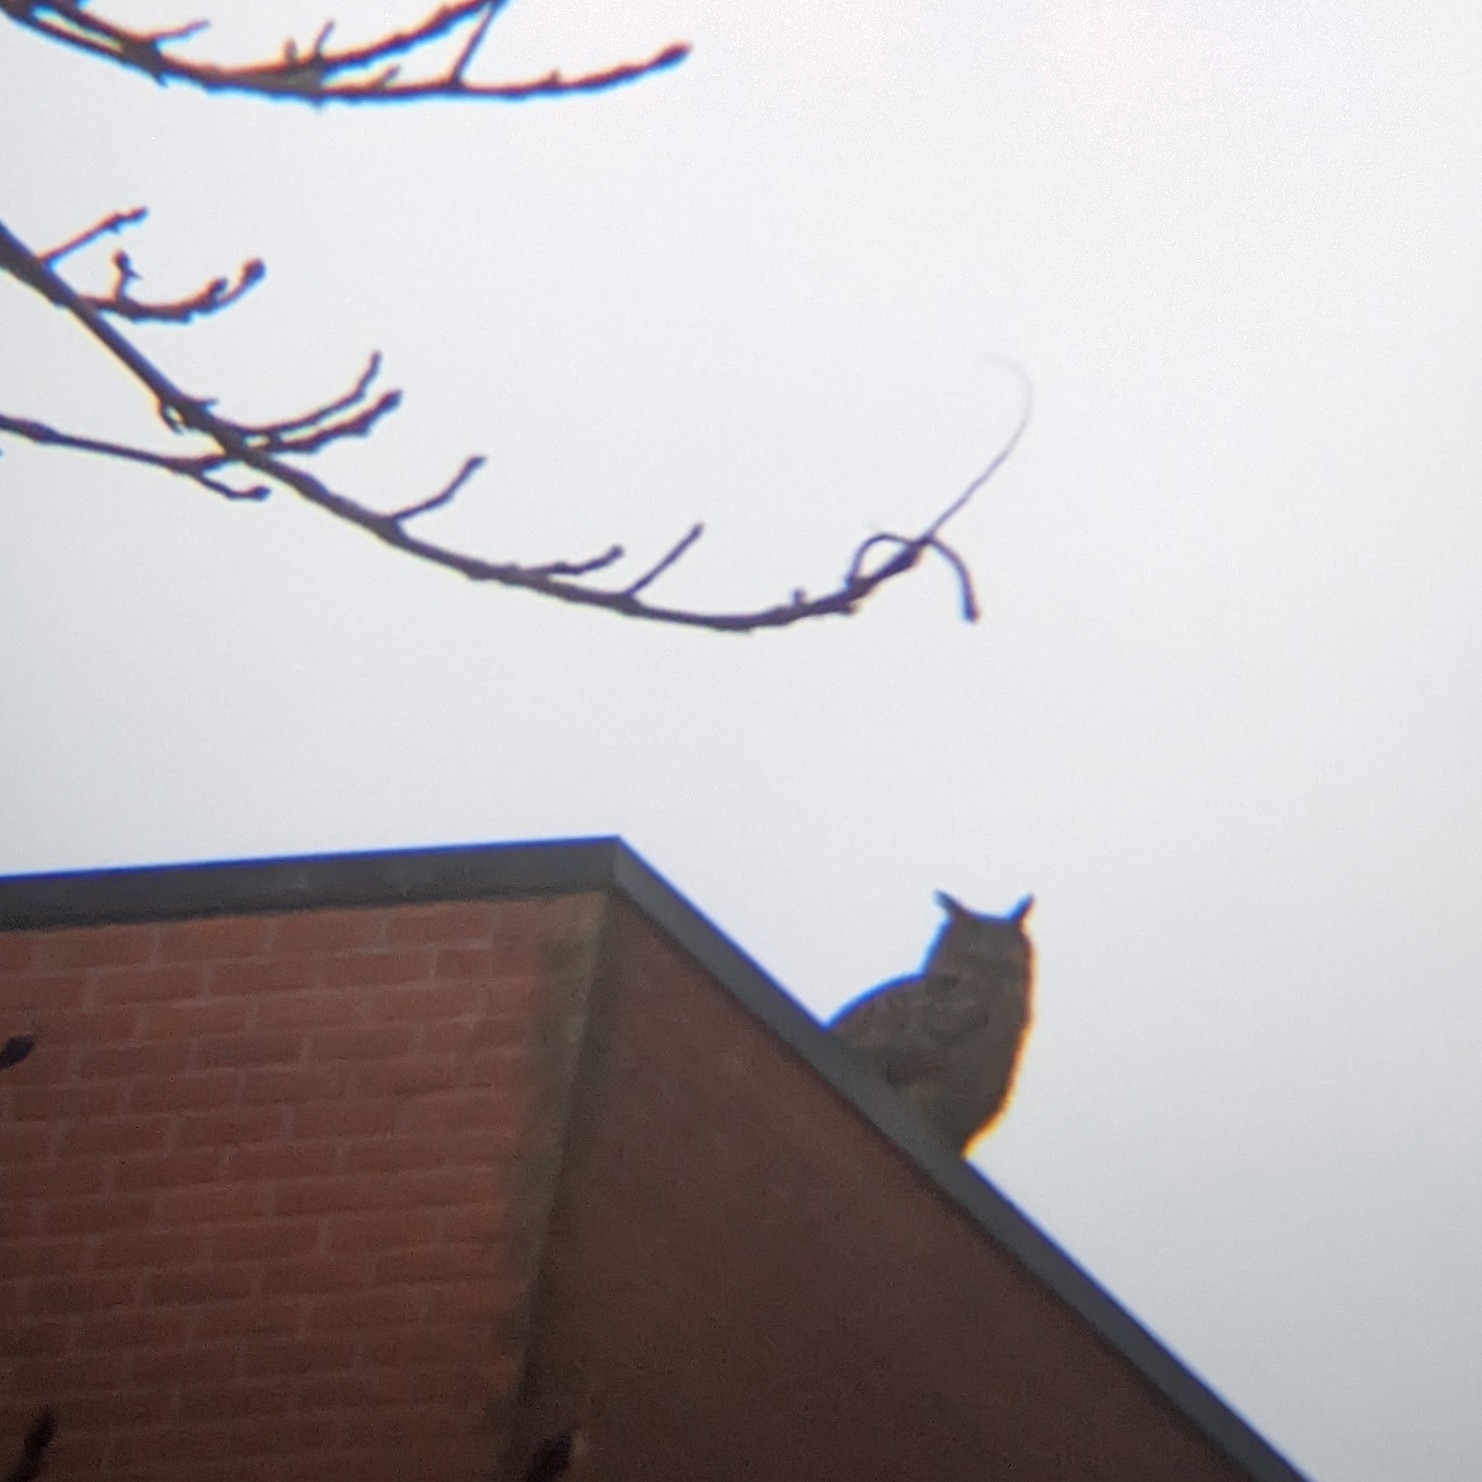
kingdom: Animalia
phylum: Chordata
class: Aves
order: Strigiformes
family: Strigidae
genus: Bubo
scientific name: Bubo bubo
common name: Eurasian eagle-owl
